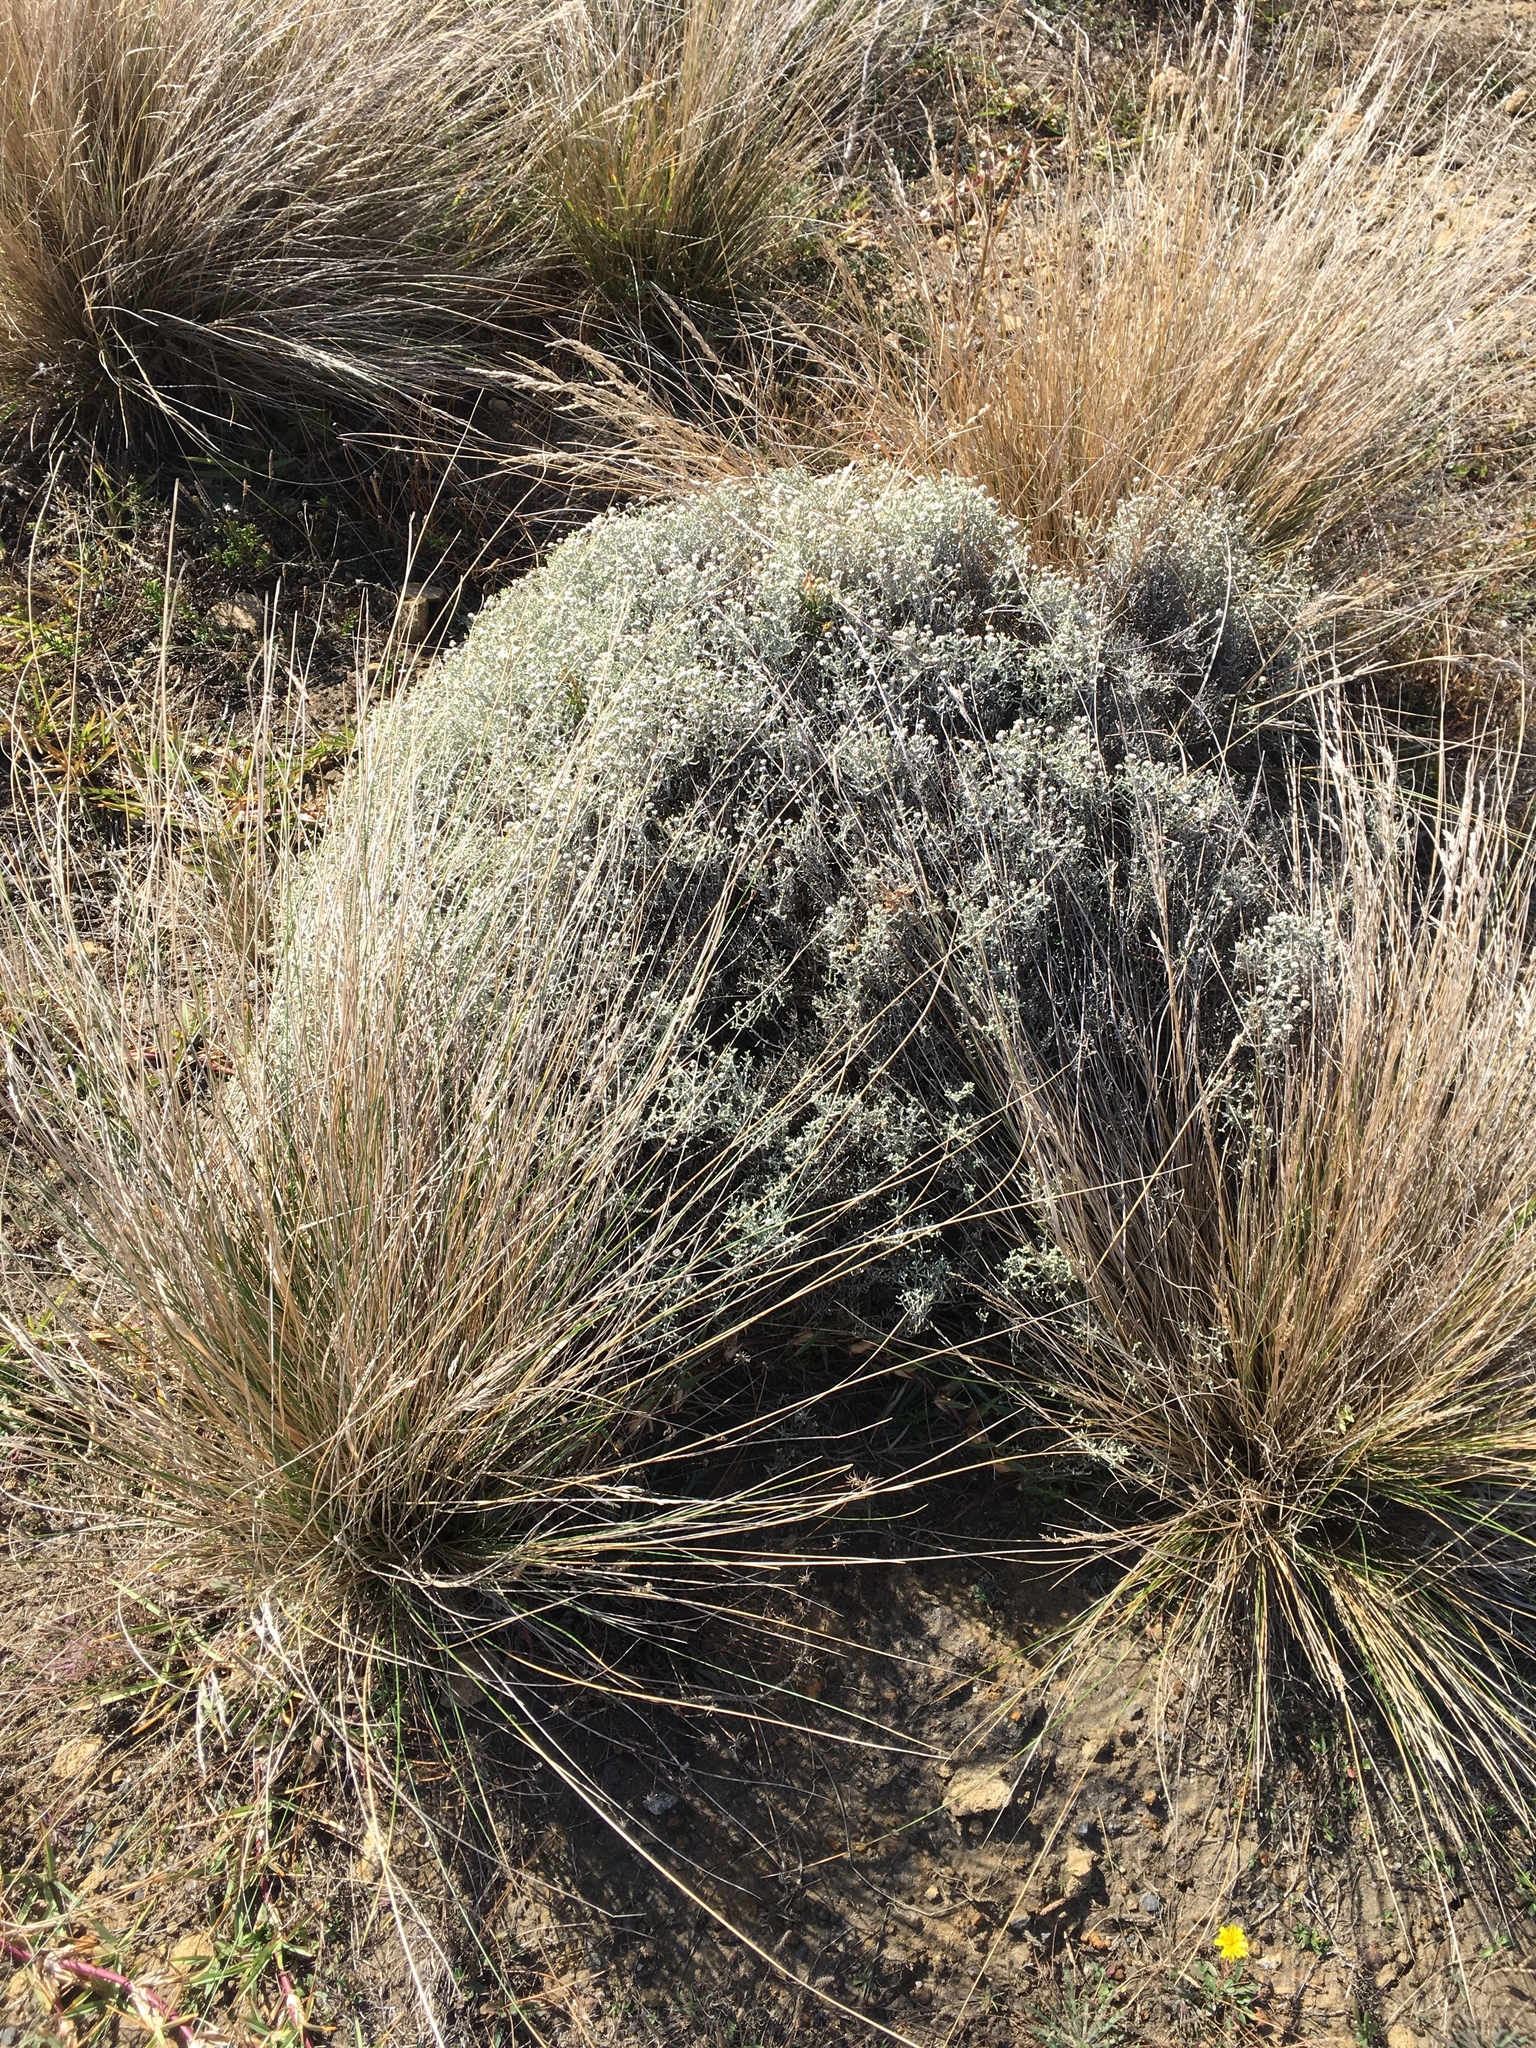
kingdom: Plantae
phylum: Tracheophyta
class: Magnoliopsida
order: Asterales
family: Asteraceae
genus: Calocephalus
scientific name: Calocephalus brownii
